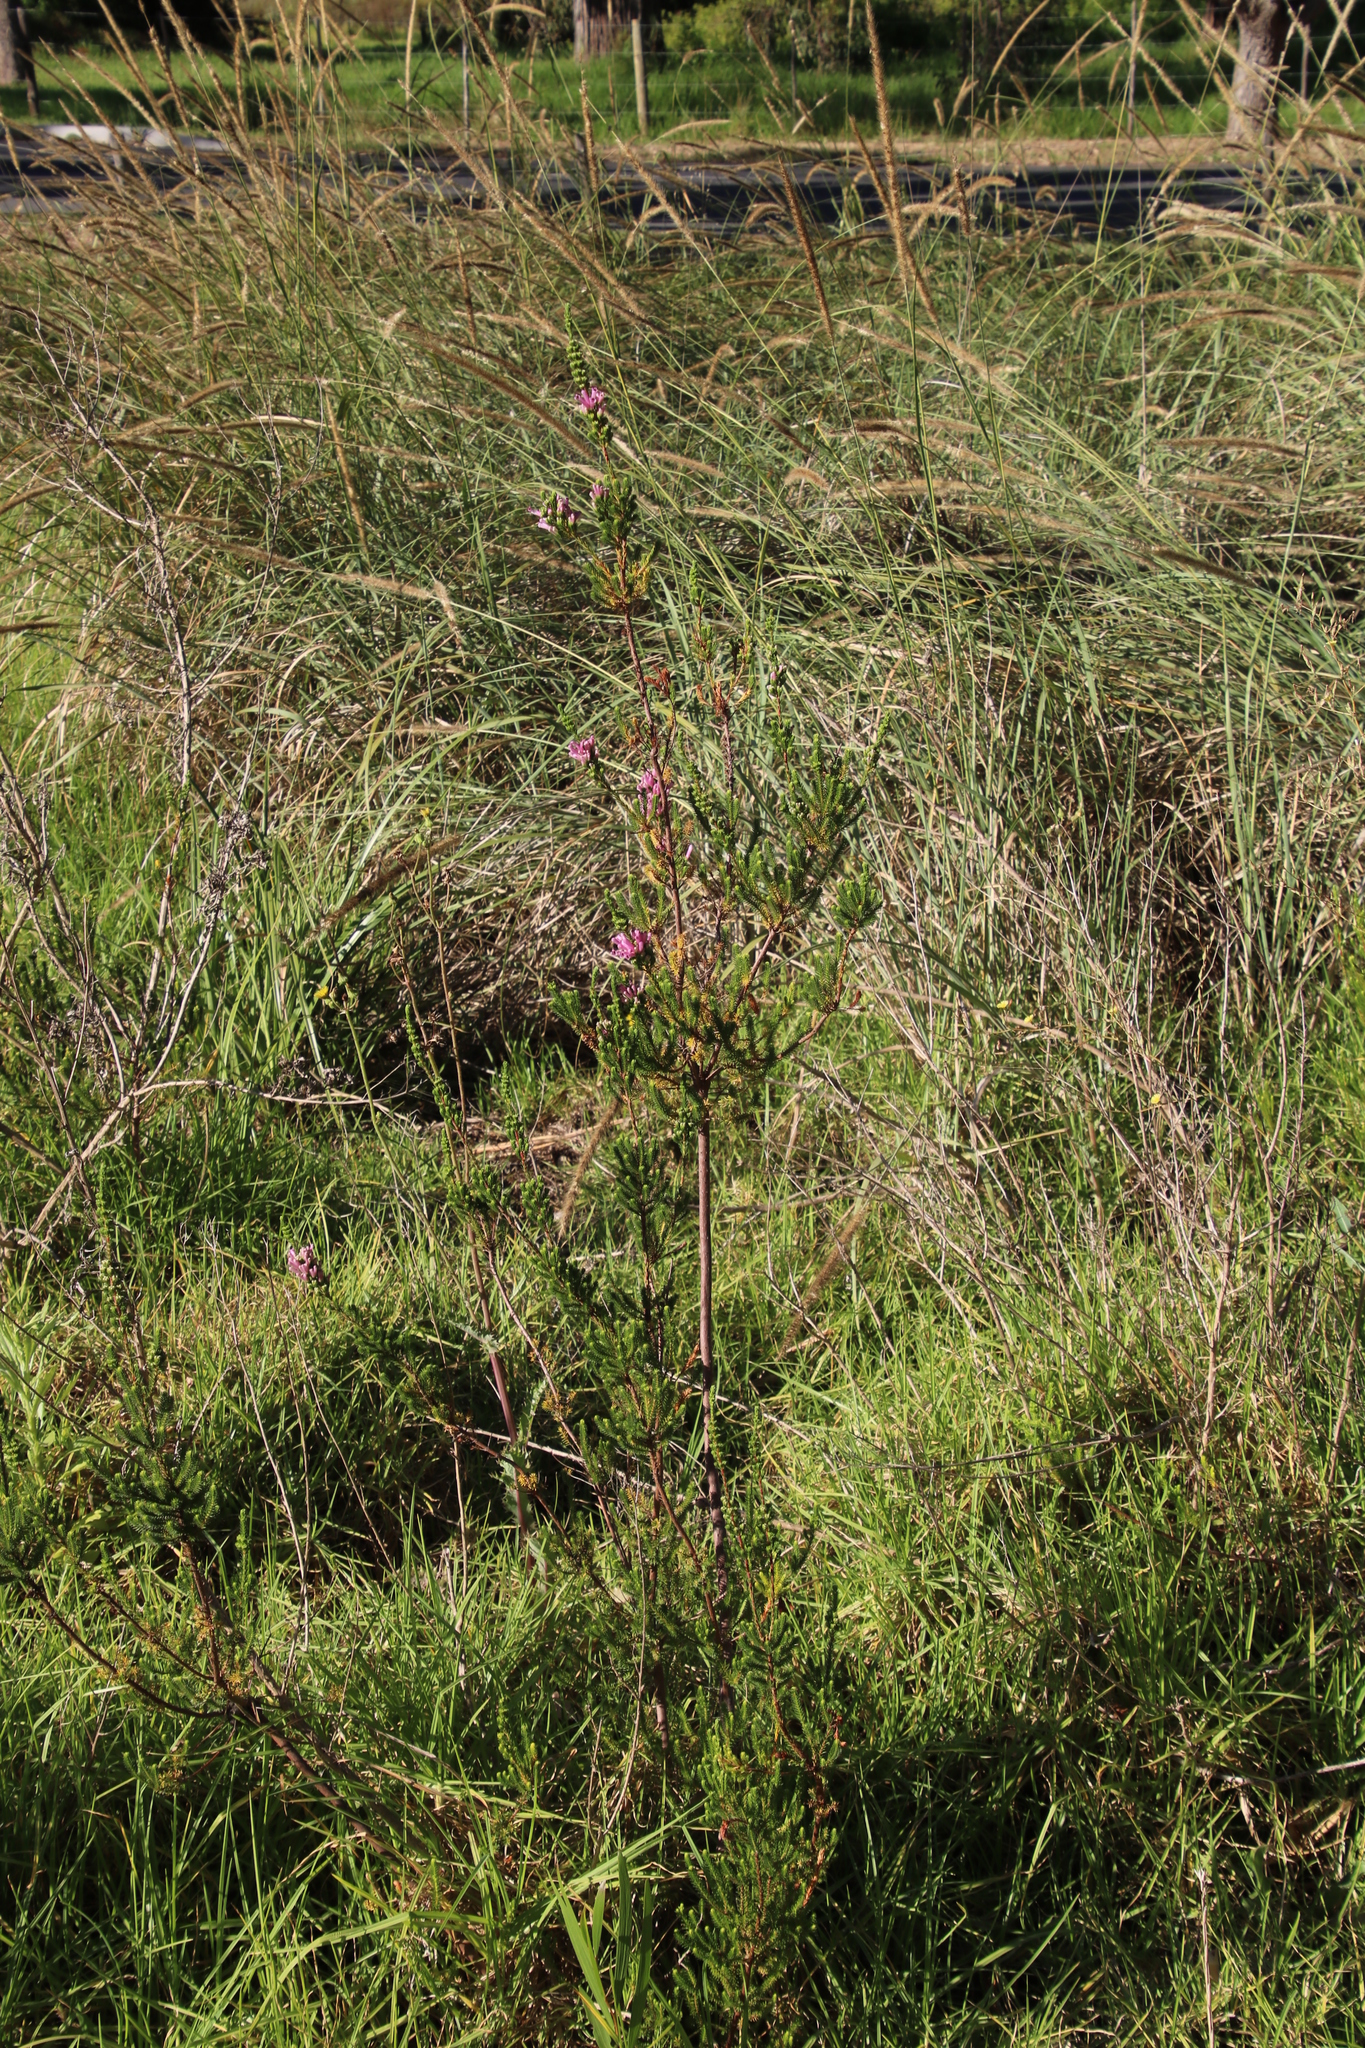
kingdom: Plantae
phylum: Tracheophyta
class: Magnoliopsida
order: Ericales
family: Ericaceae
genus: Erica
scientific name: Erica verticillata
